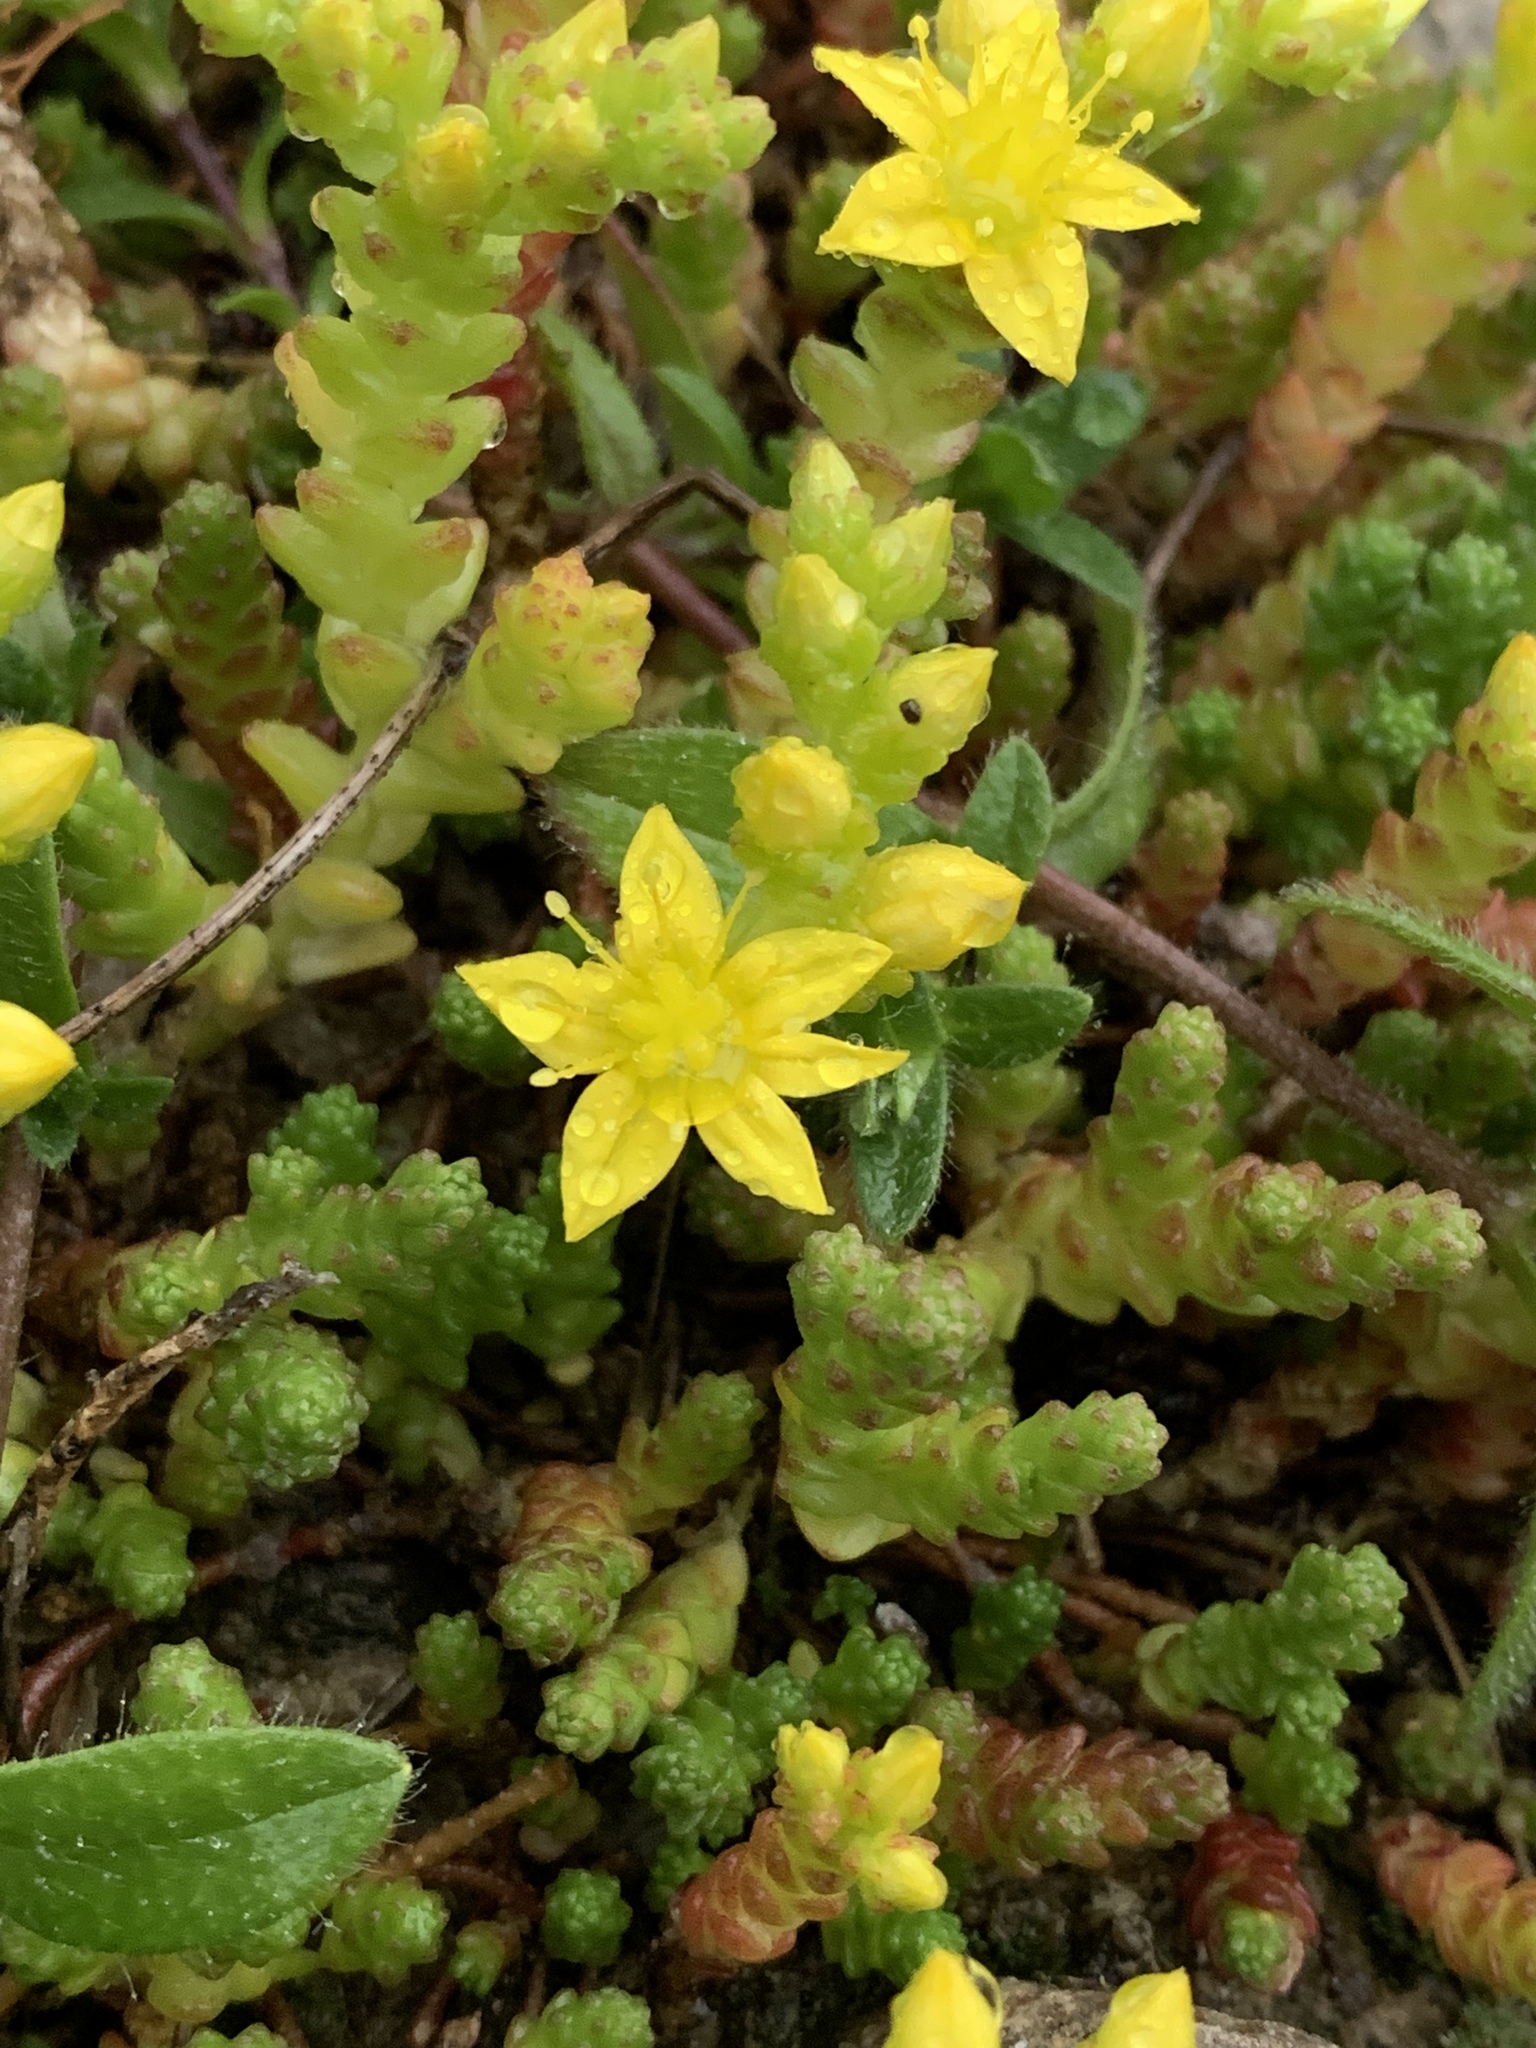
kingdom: Plantae
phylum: Tracheophyta
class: Magnoliopsida
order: Saxifragales
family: Crassulaceae
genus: Sedum
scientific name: Sedum acre
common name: Biting stonecrop
